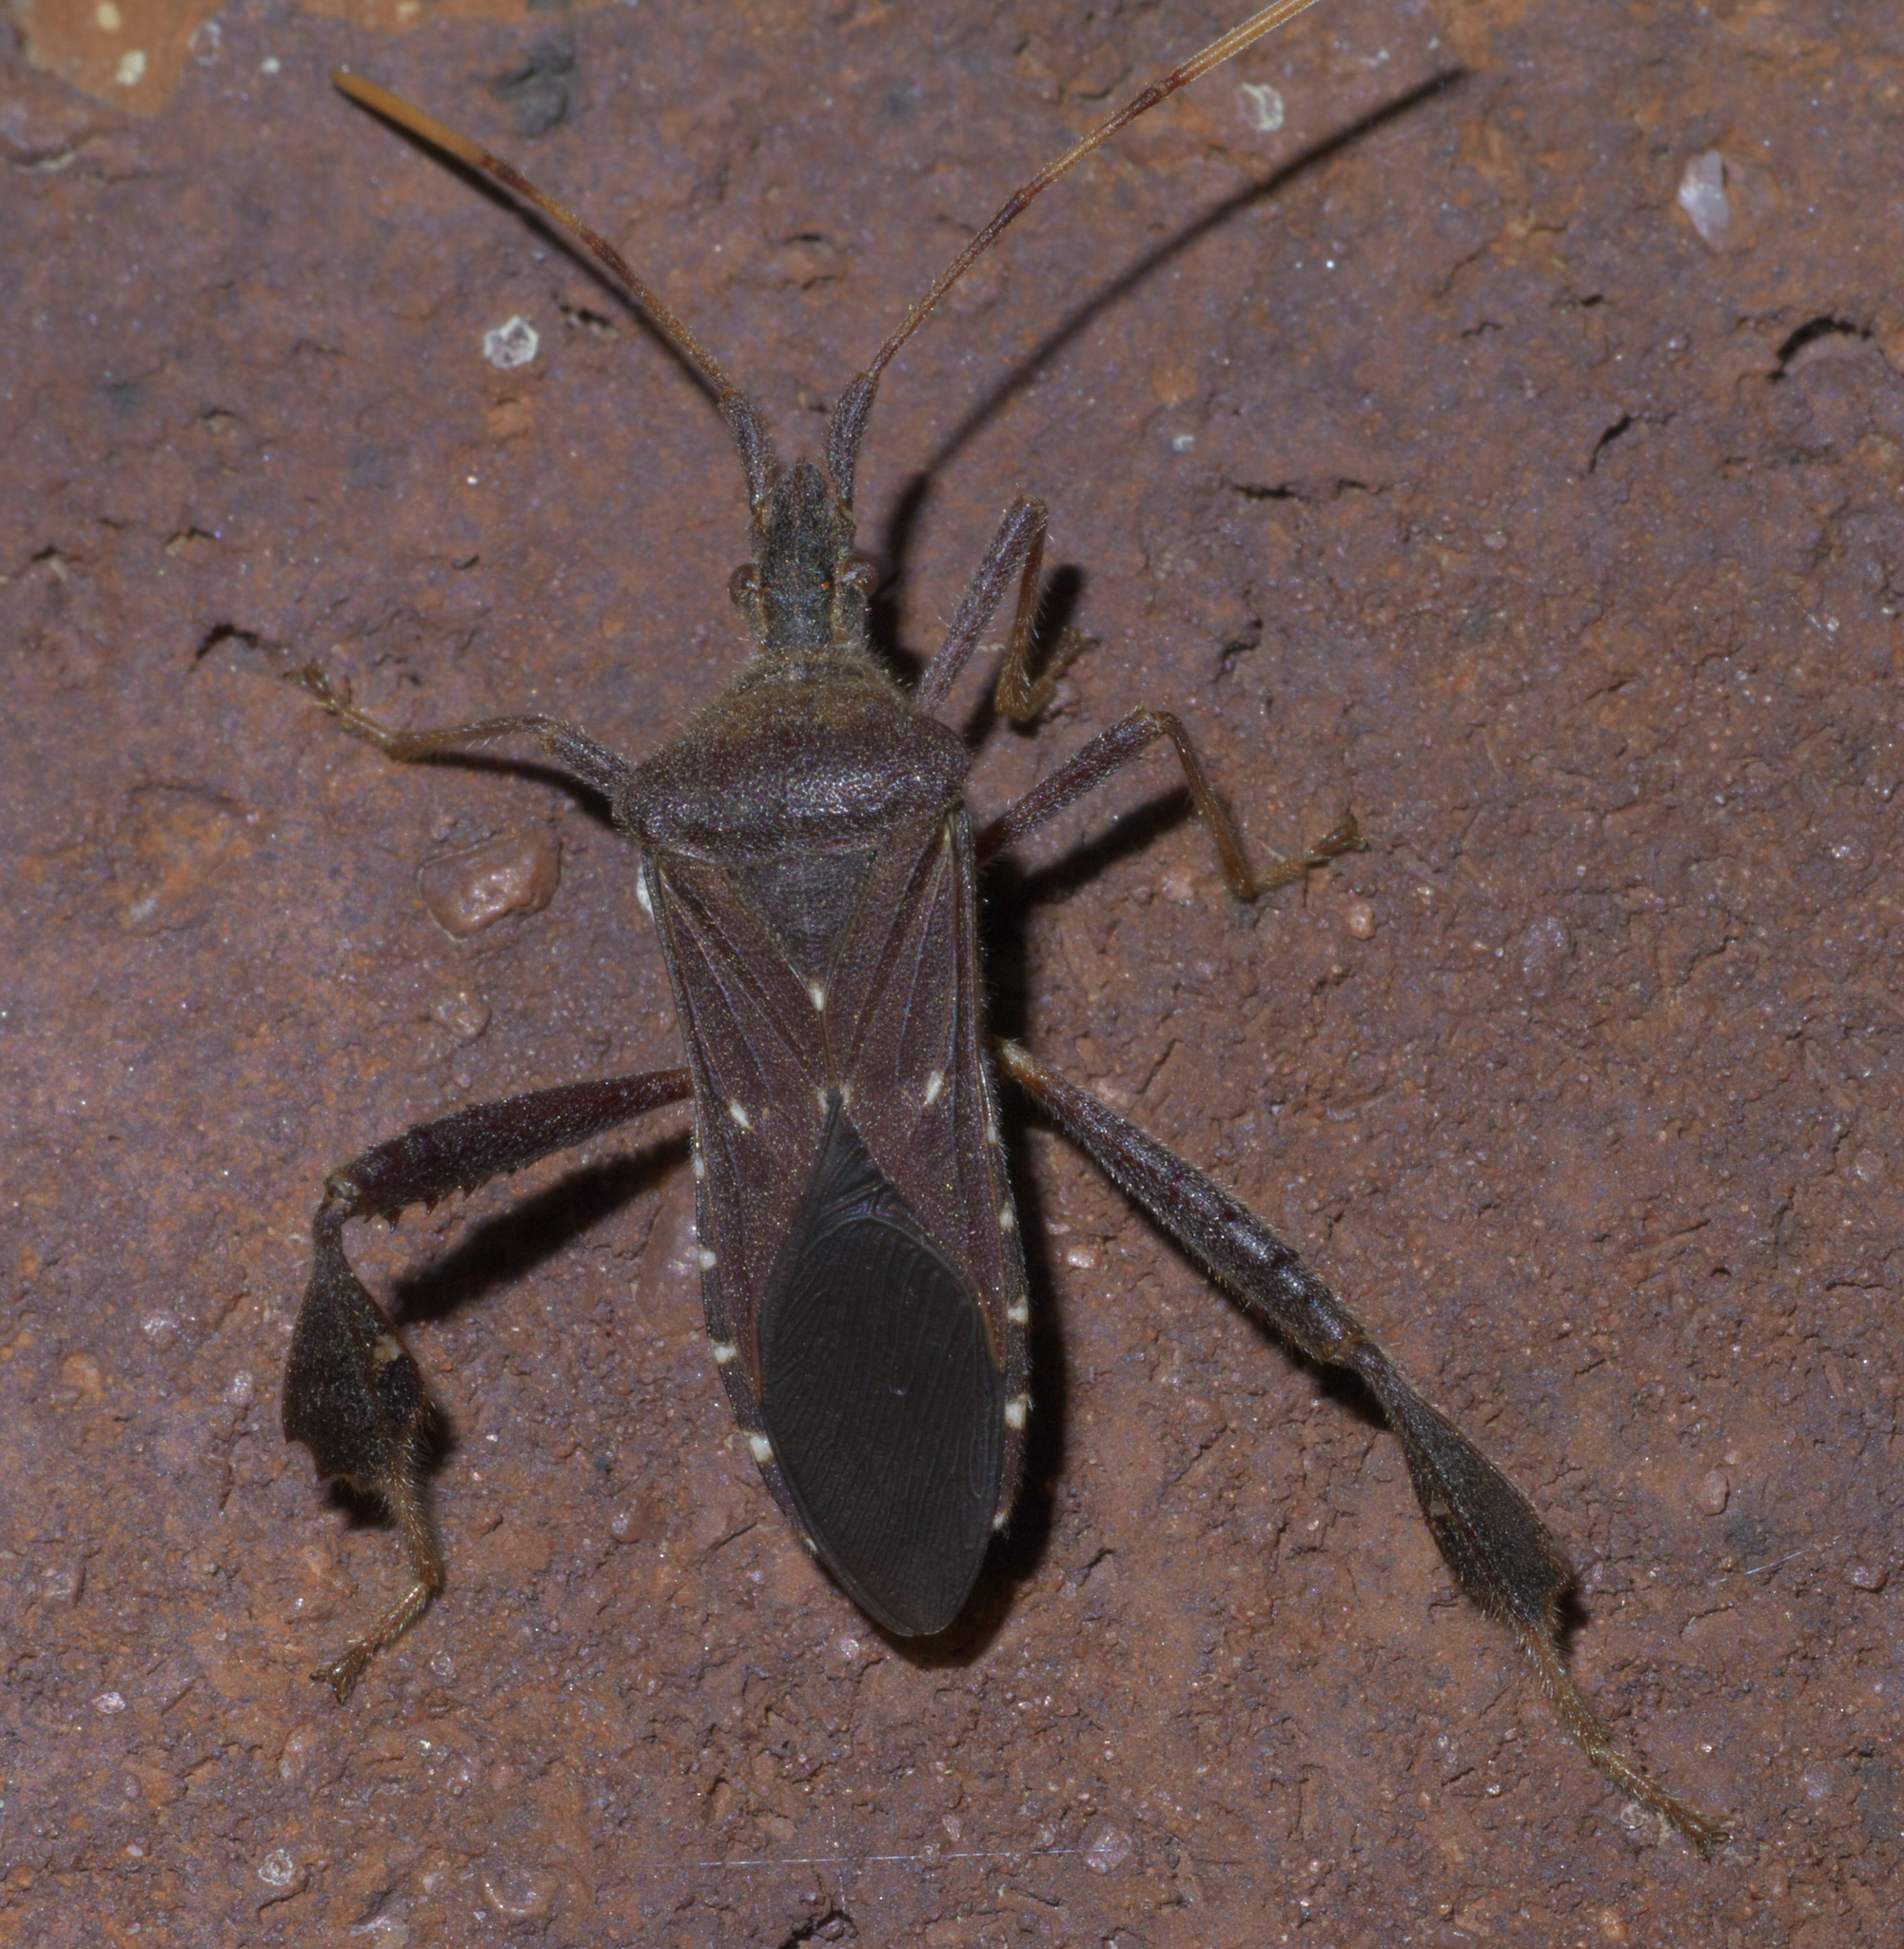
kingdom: Animalia
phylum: Arthropoda
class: Insecta
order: Hemiptera
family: Coreidae
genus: Leptoglossus
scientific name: Leptoglossus oppositus
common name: Northern leaf-footed bug
